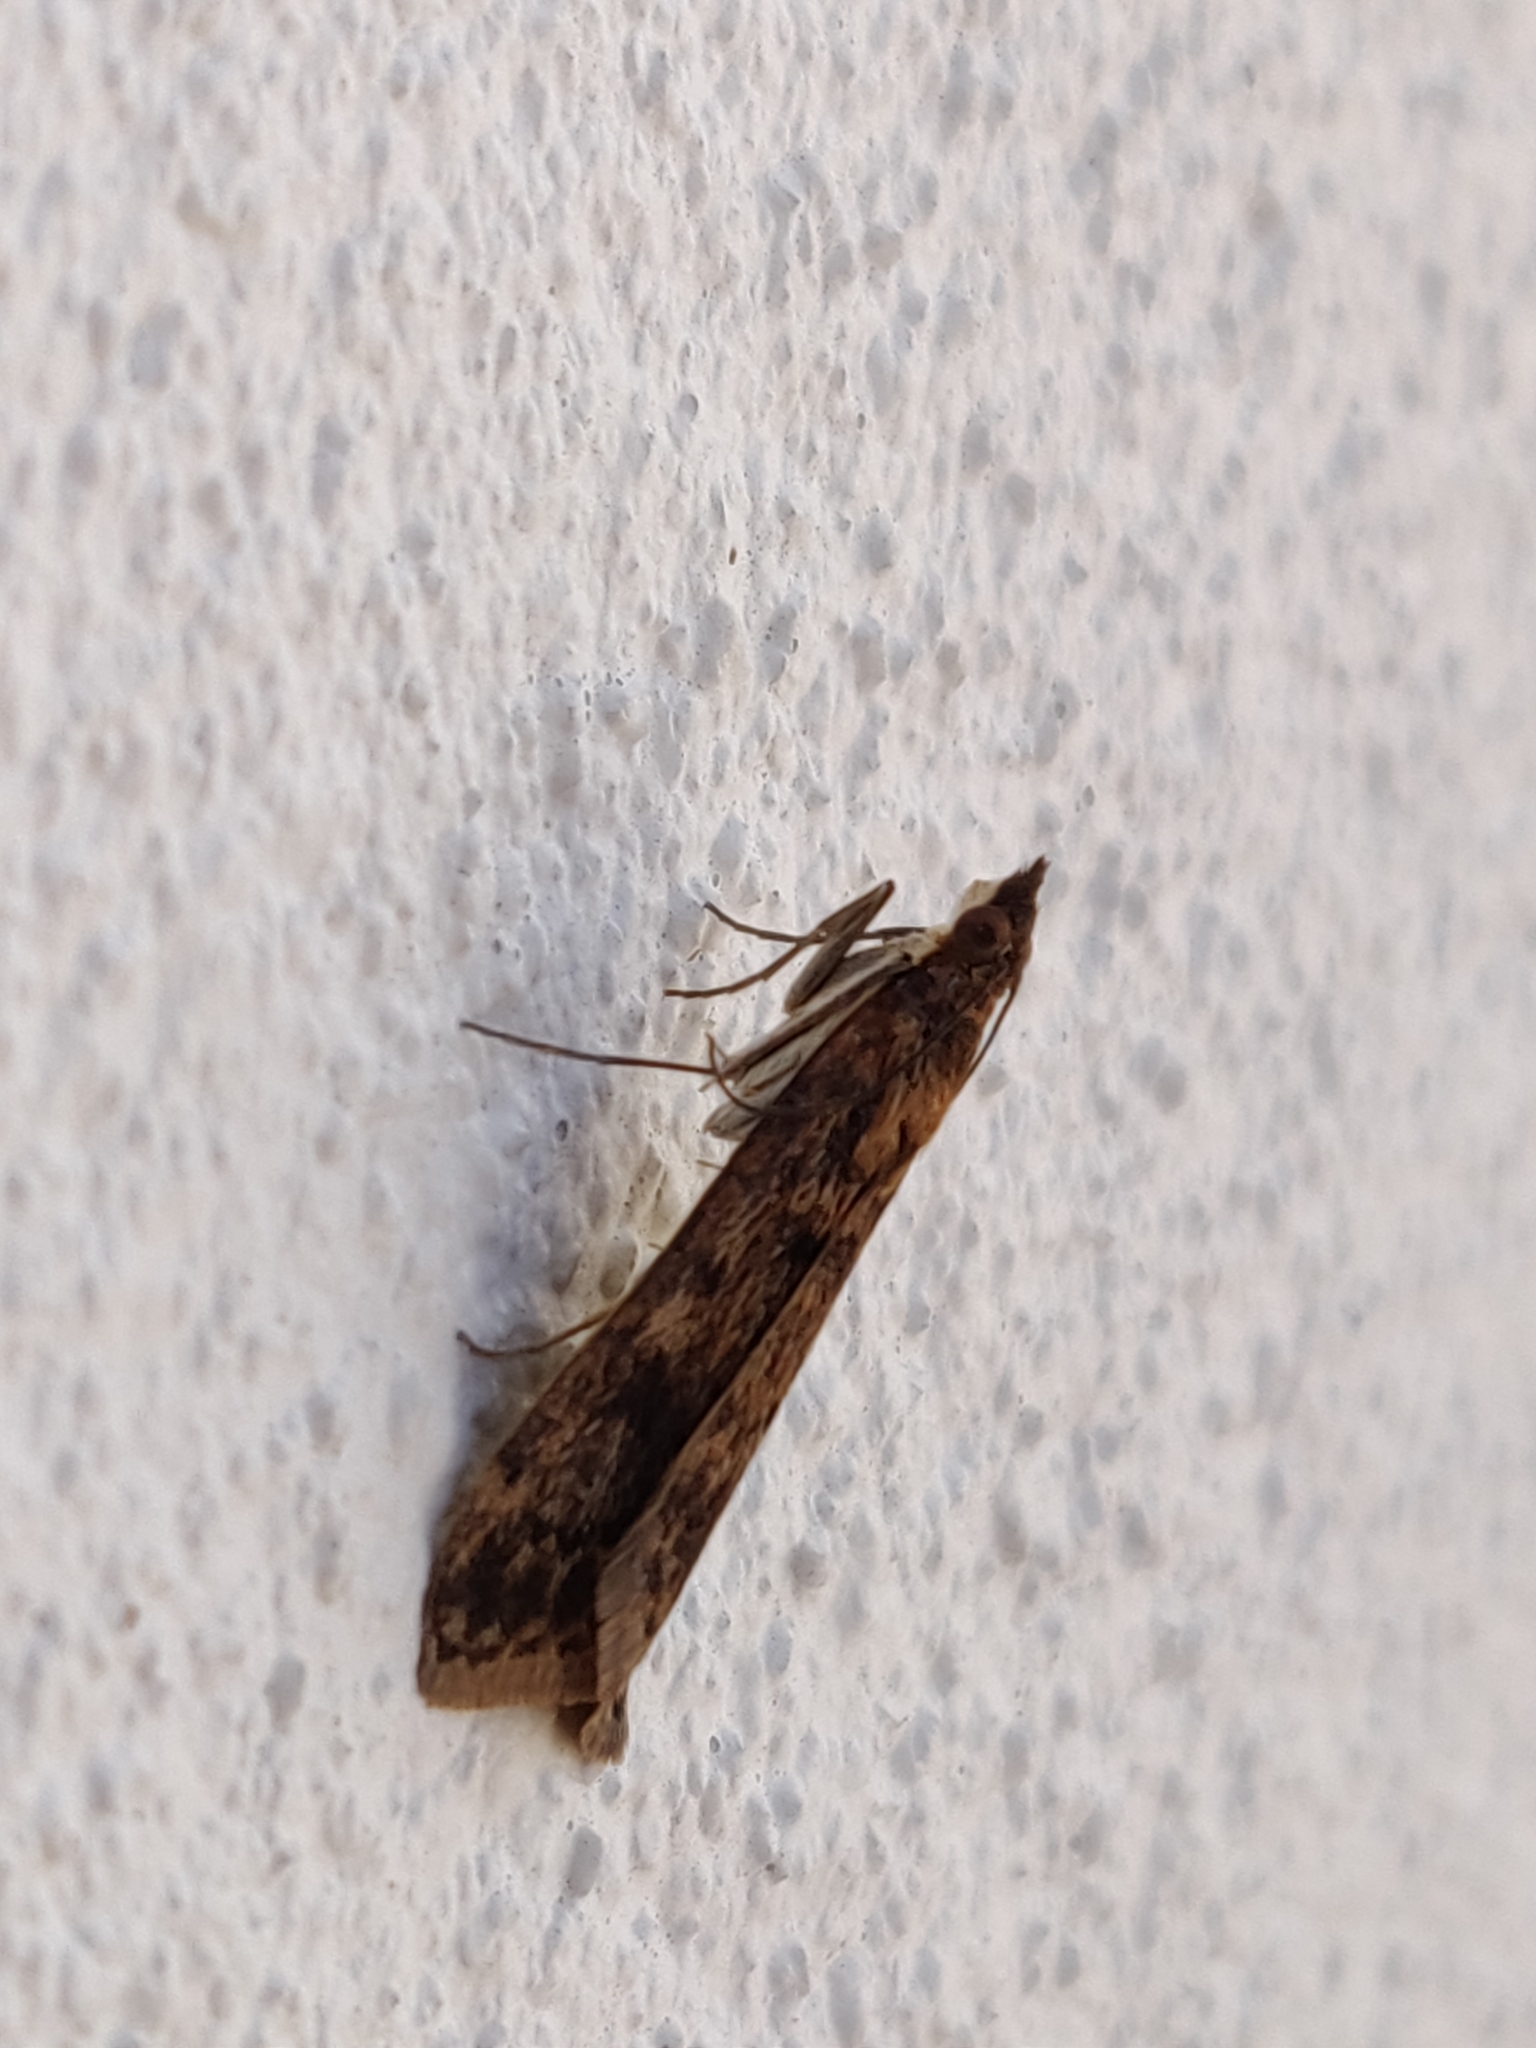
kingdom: Animalia
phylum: Arthropoda
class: Insecta
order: Lepidoptera
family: Crambidae
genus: Achyra
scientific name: Achyra affinitalis
